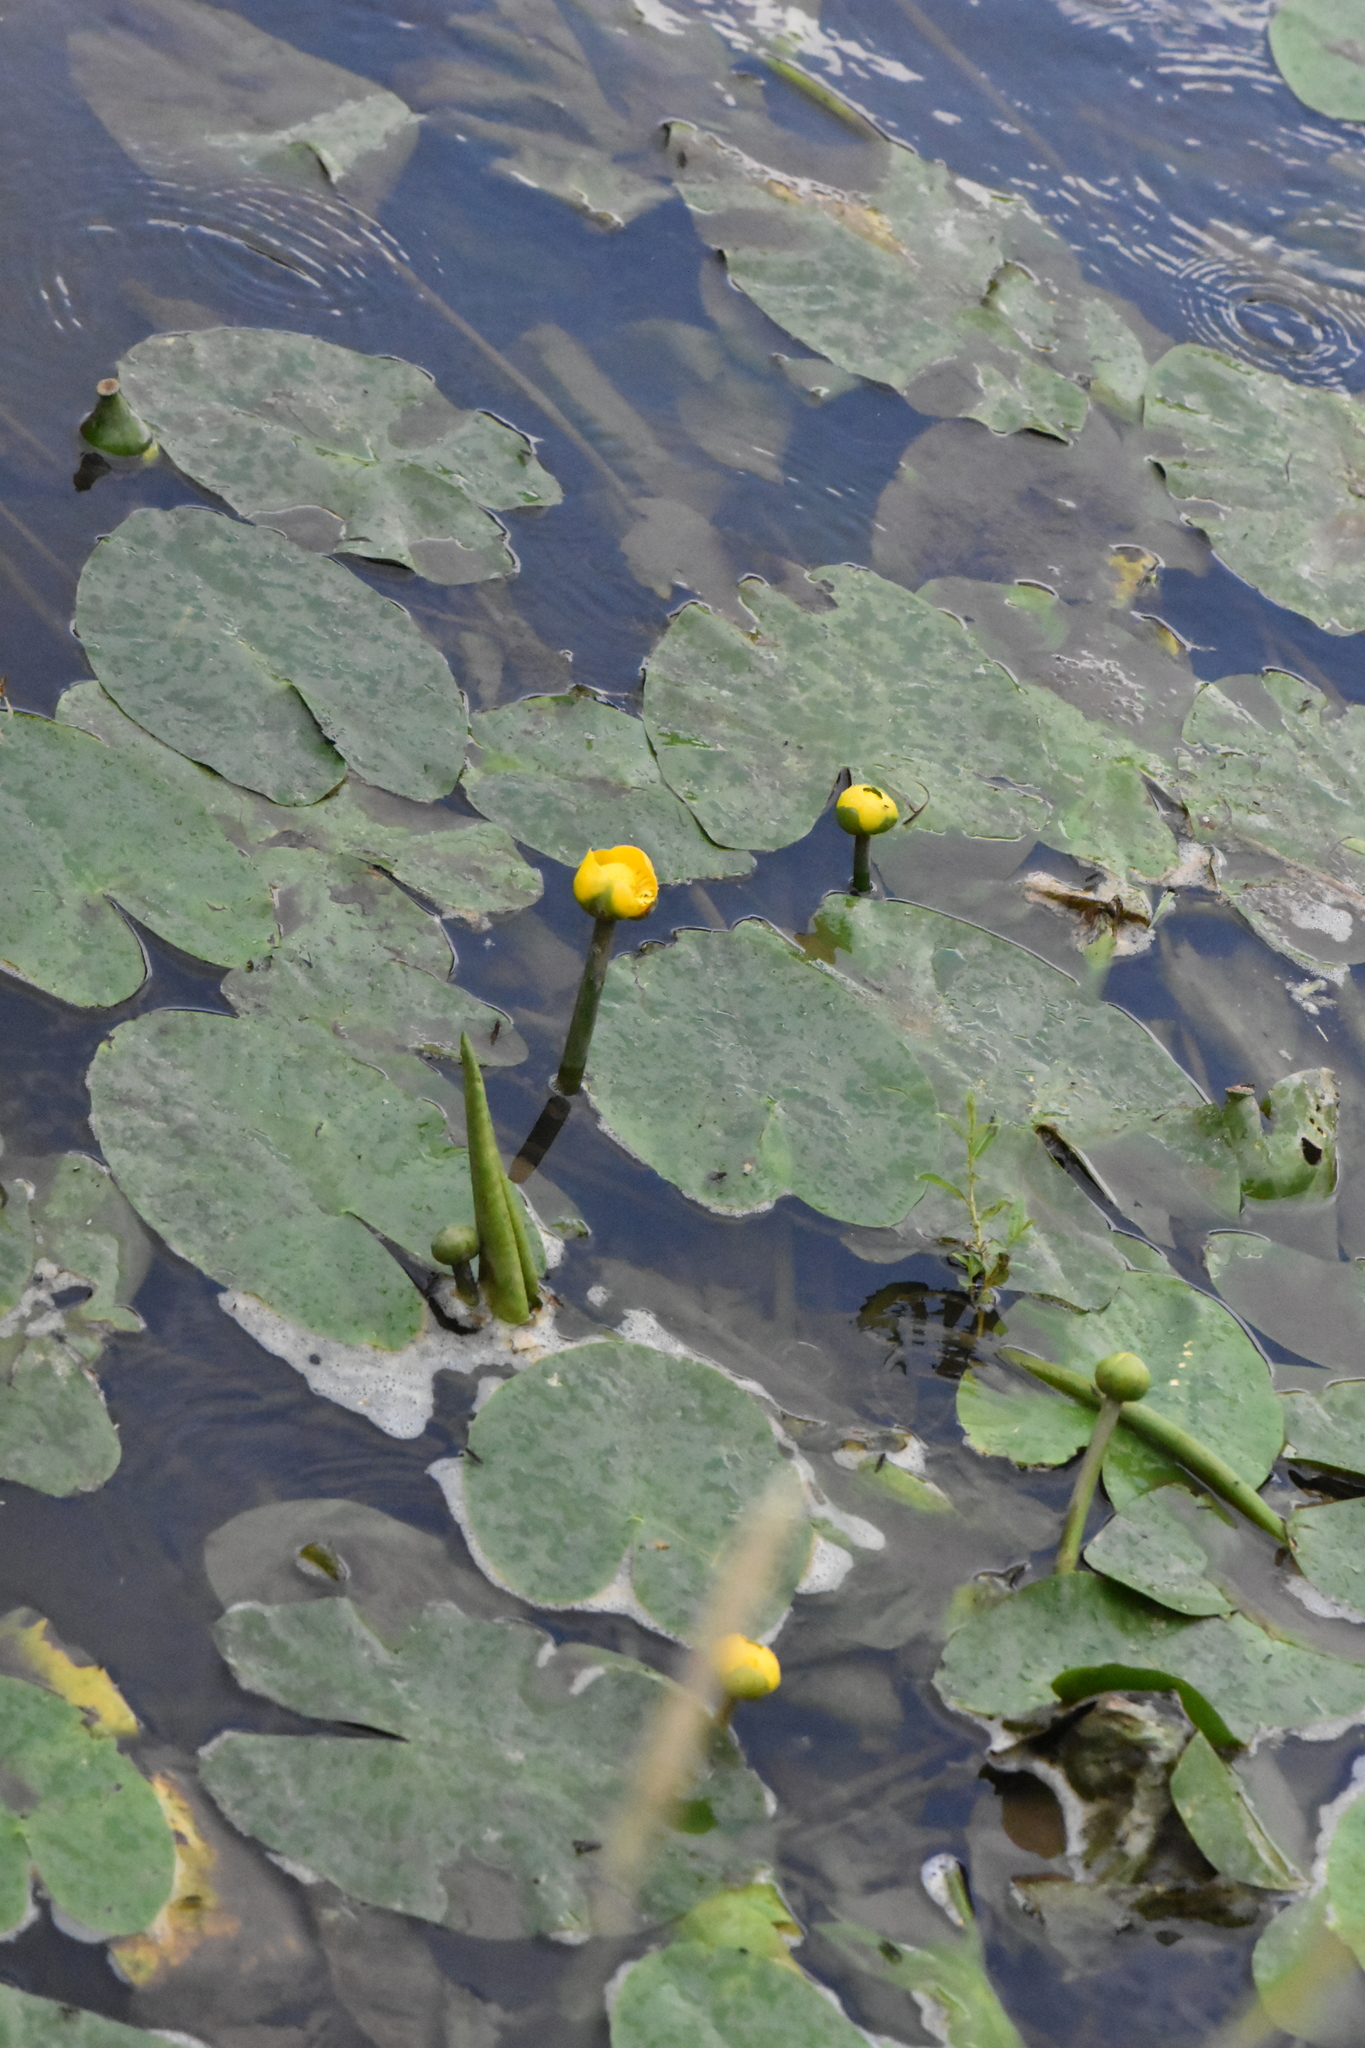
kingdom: Plantae
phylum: Tracheophyta
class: Magnoliopsida
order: Nymphaeales
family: Nymphaeaceae
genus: Nuphar
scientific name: Nuphar lutea
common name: Yellow water-lily
